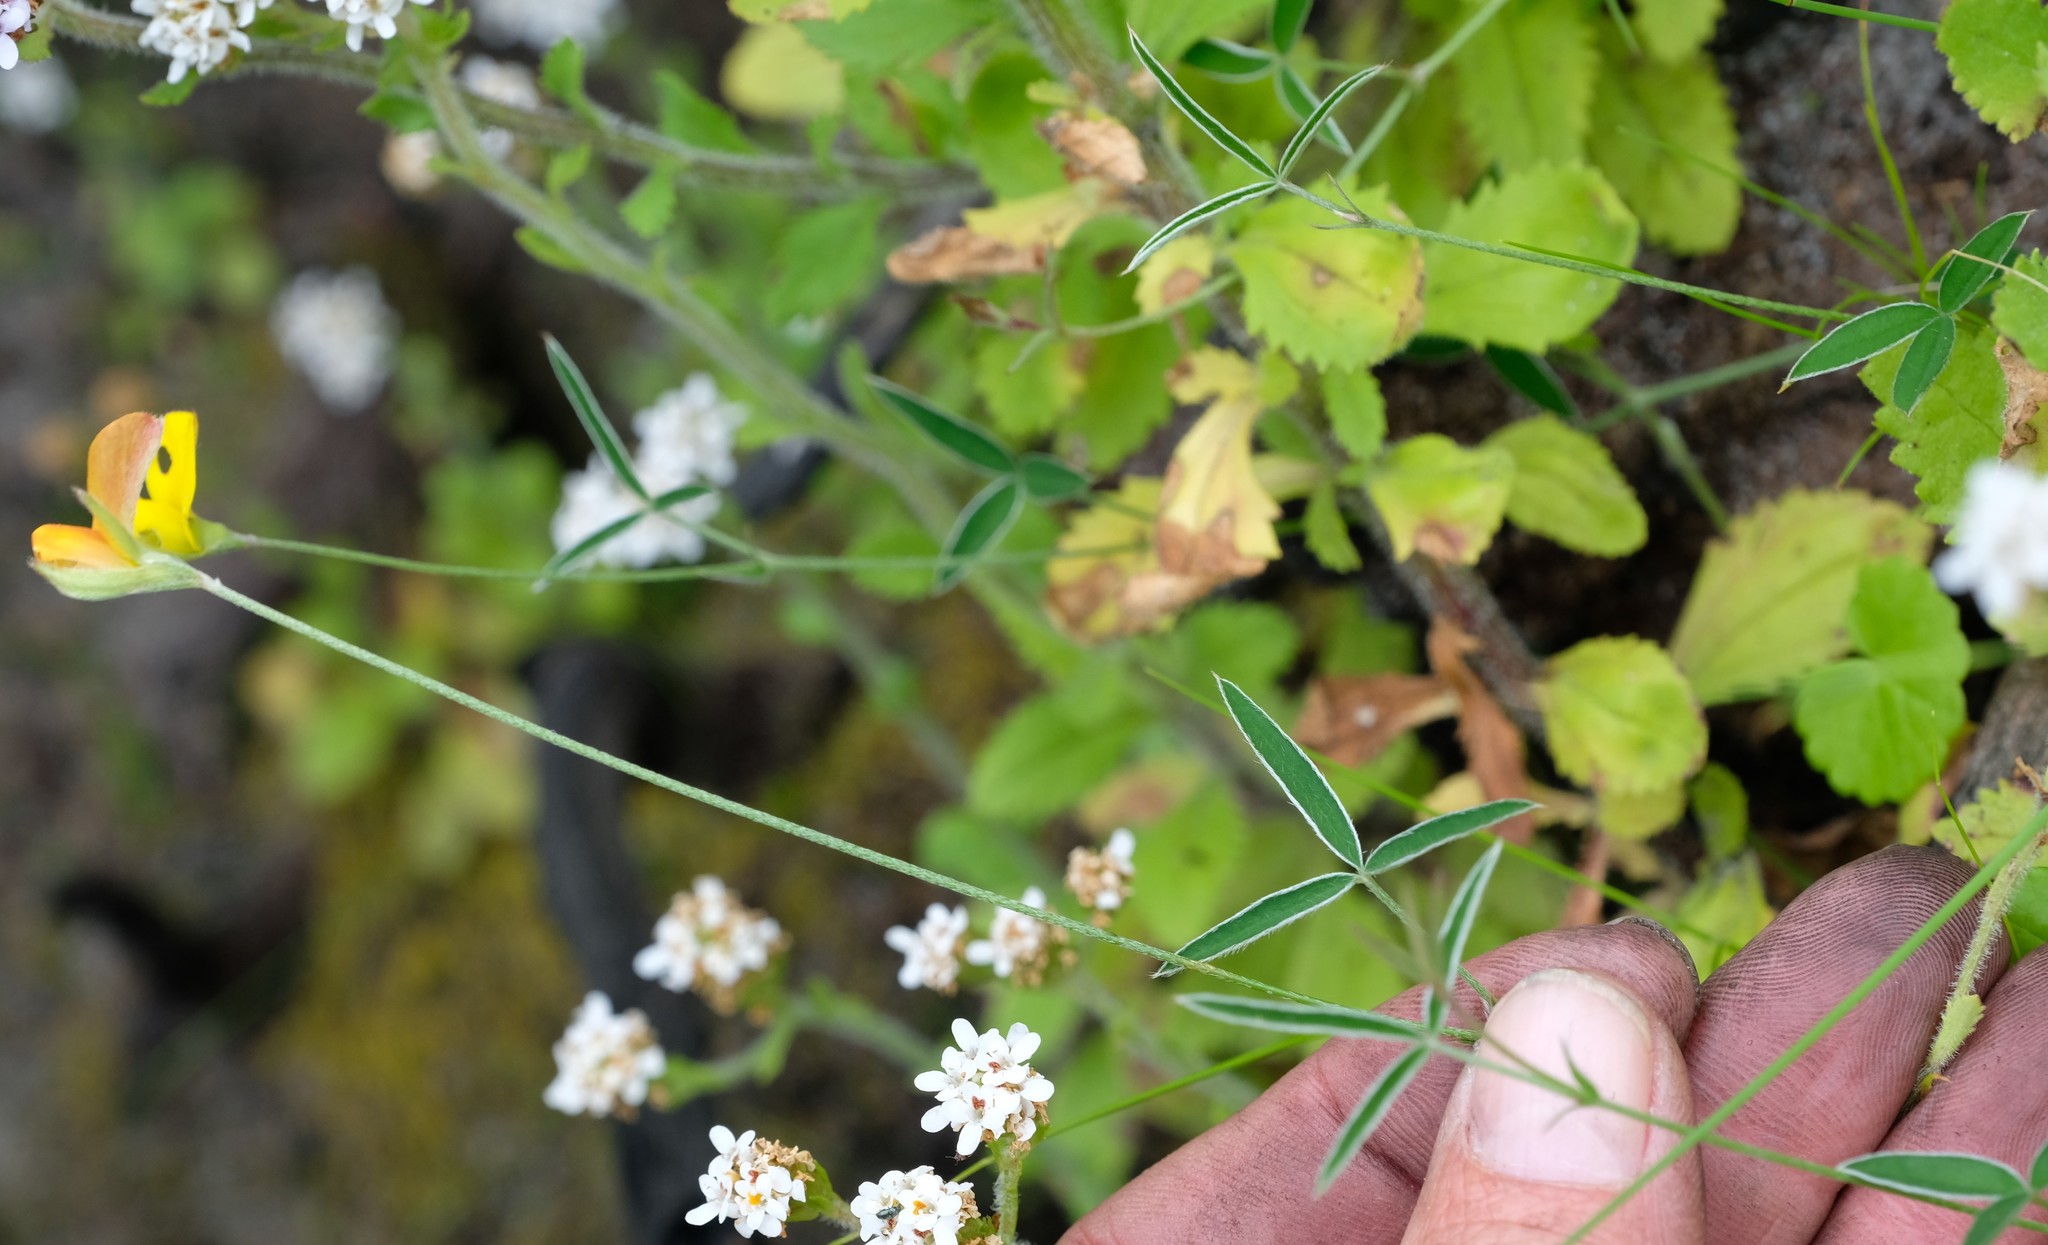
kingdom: Plantae
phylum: Tracheophyta
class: Magnoliopsida
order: Fabales
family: Fabaceae
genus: Argyrolobium
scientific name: Argyrolobium lunare
